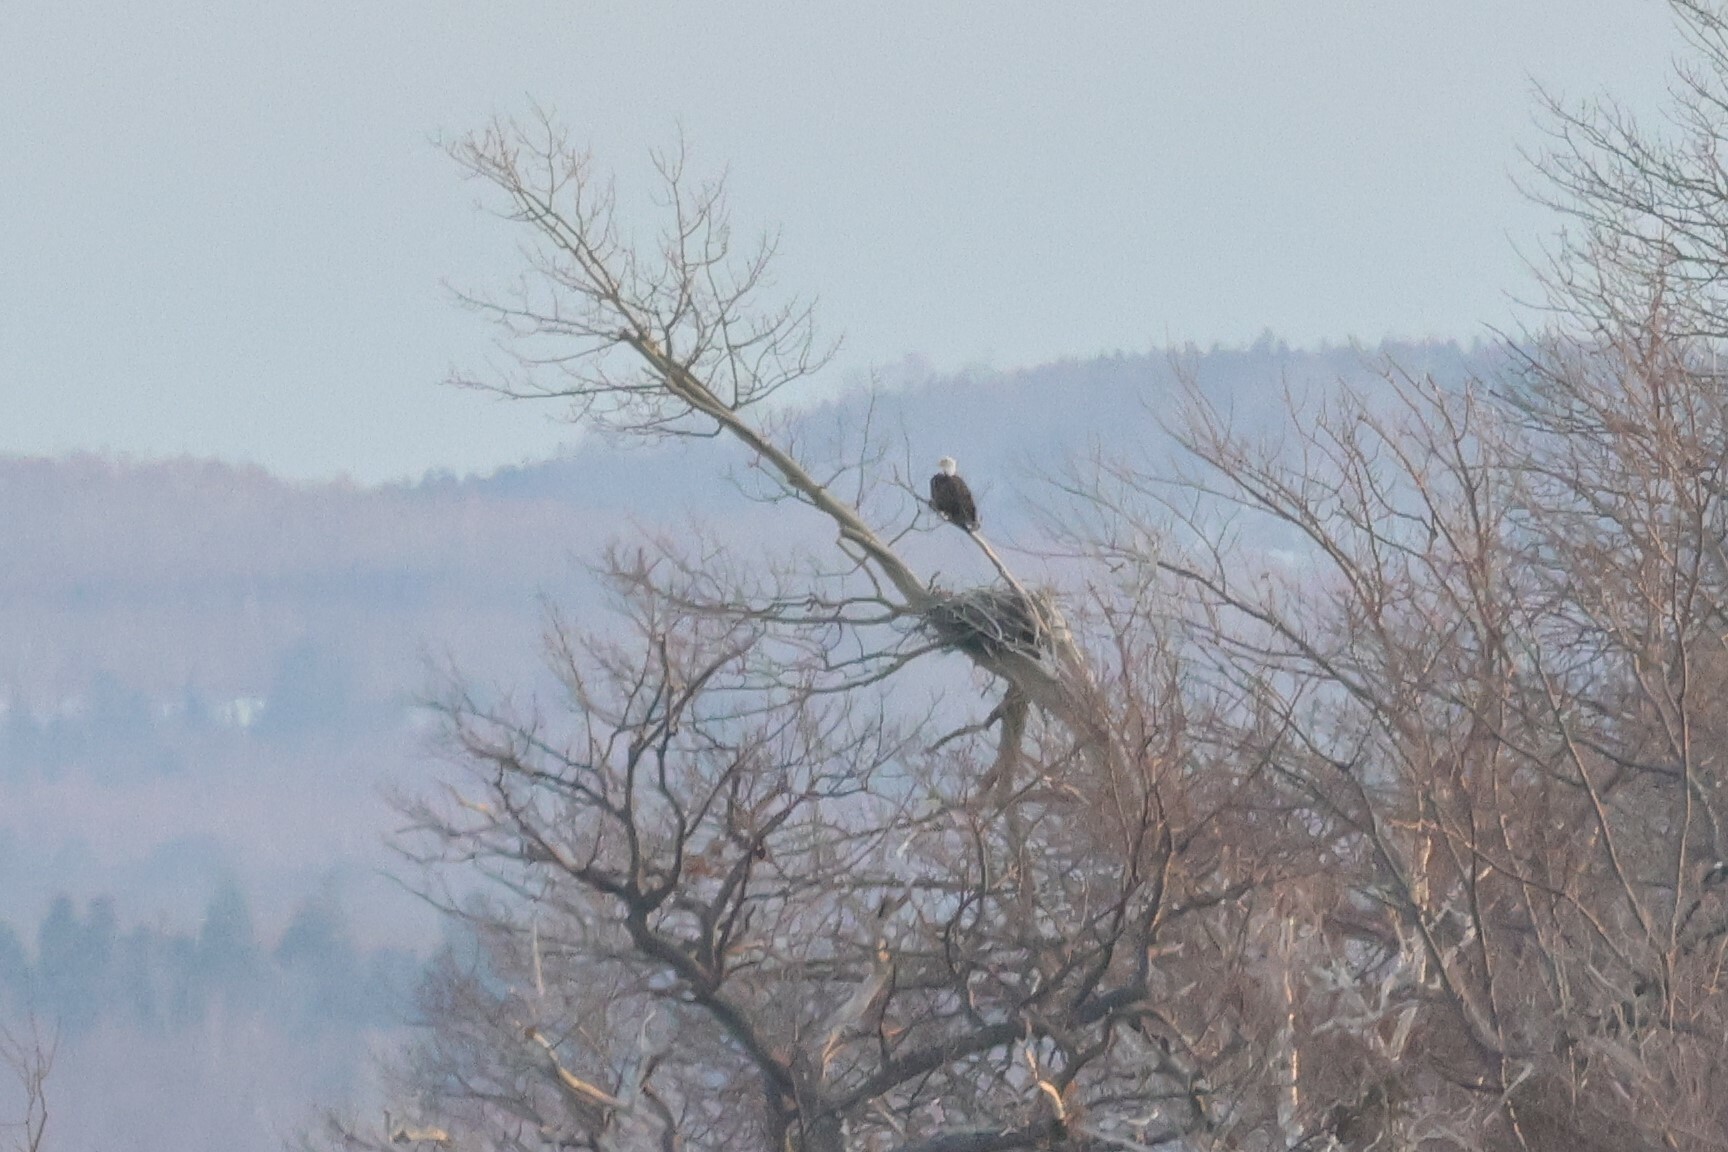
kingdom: Animalia
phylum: Chordata
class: Aves
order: Accipitriformes
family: Accipitridae
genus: Haliaeetus
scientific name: Haliaeetus leucocephalus
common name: Bald eagle
